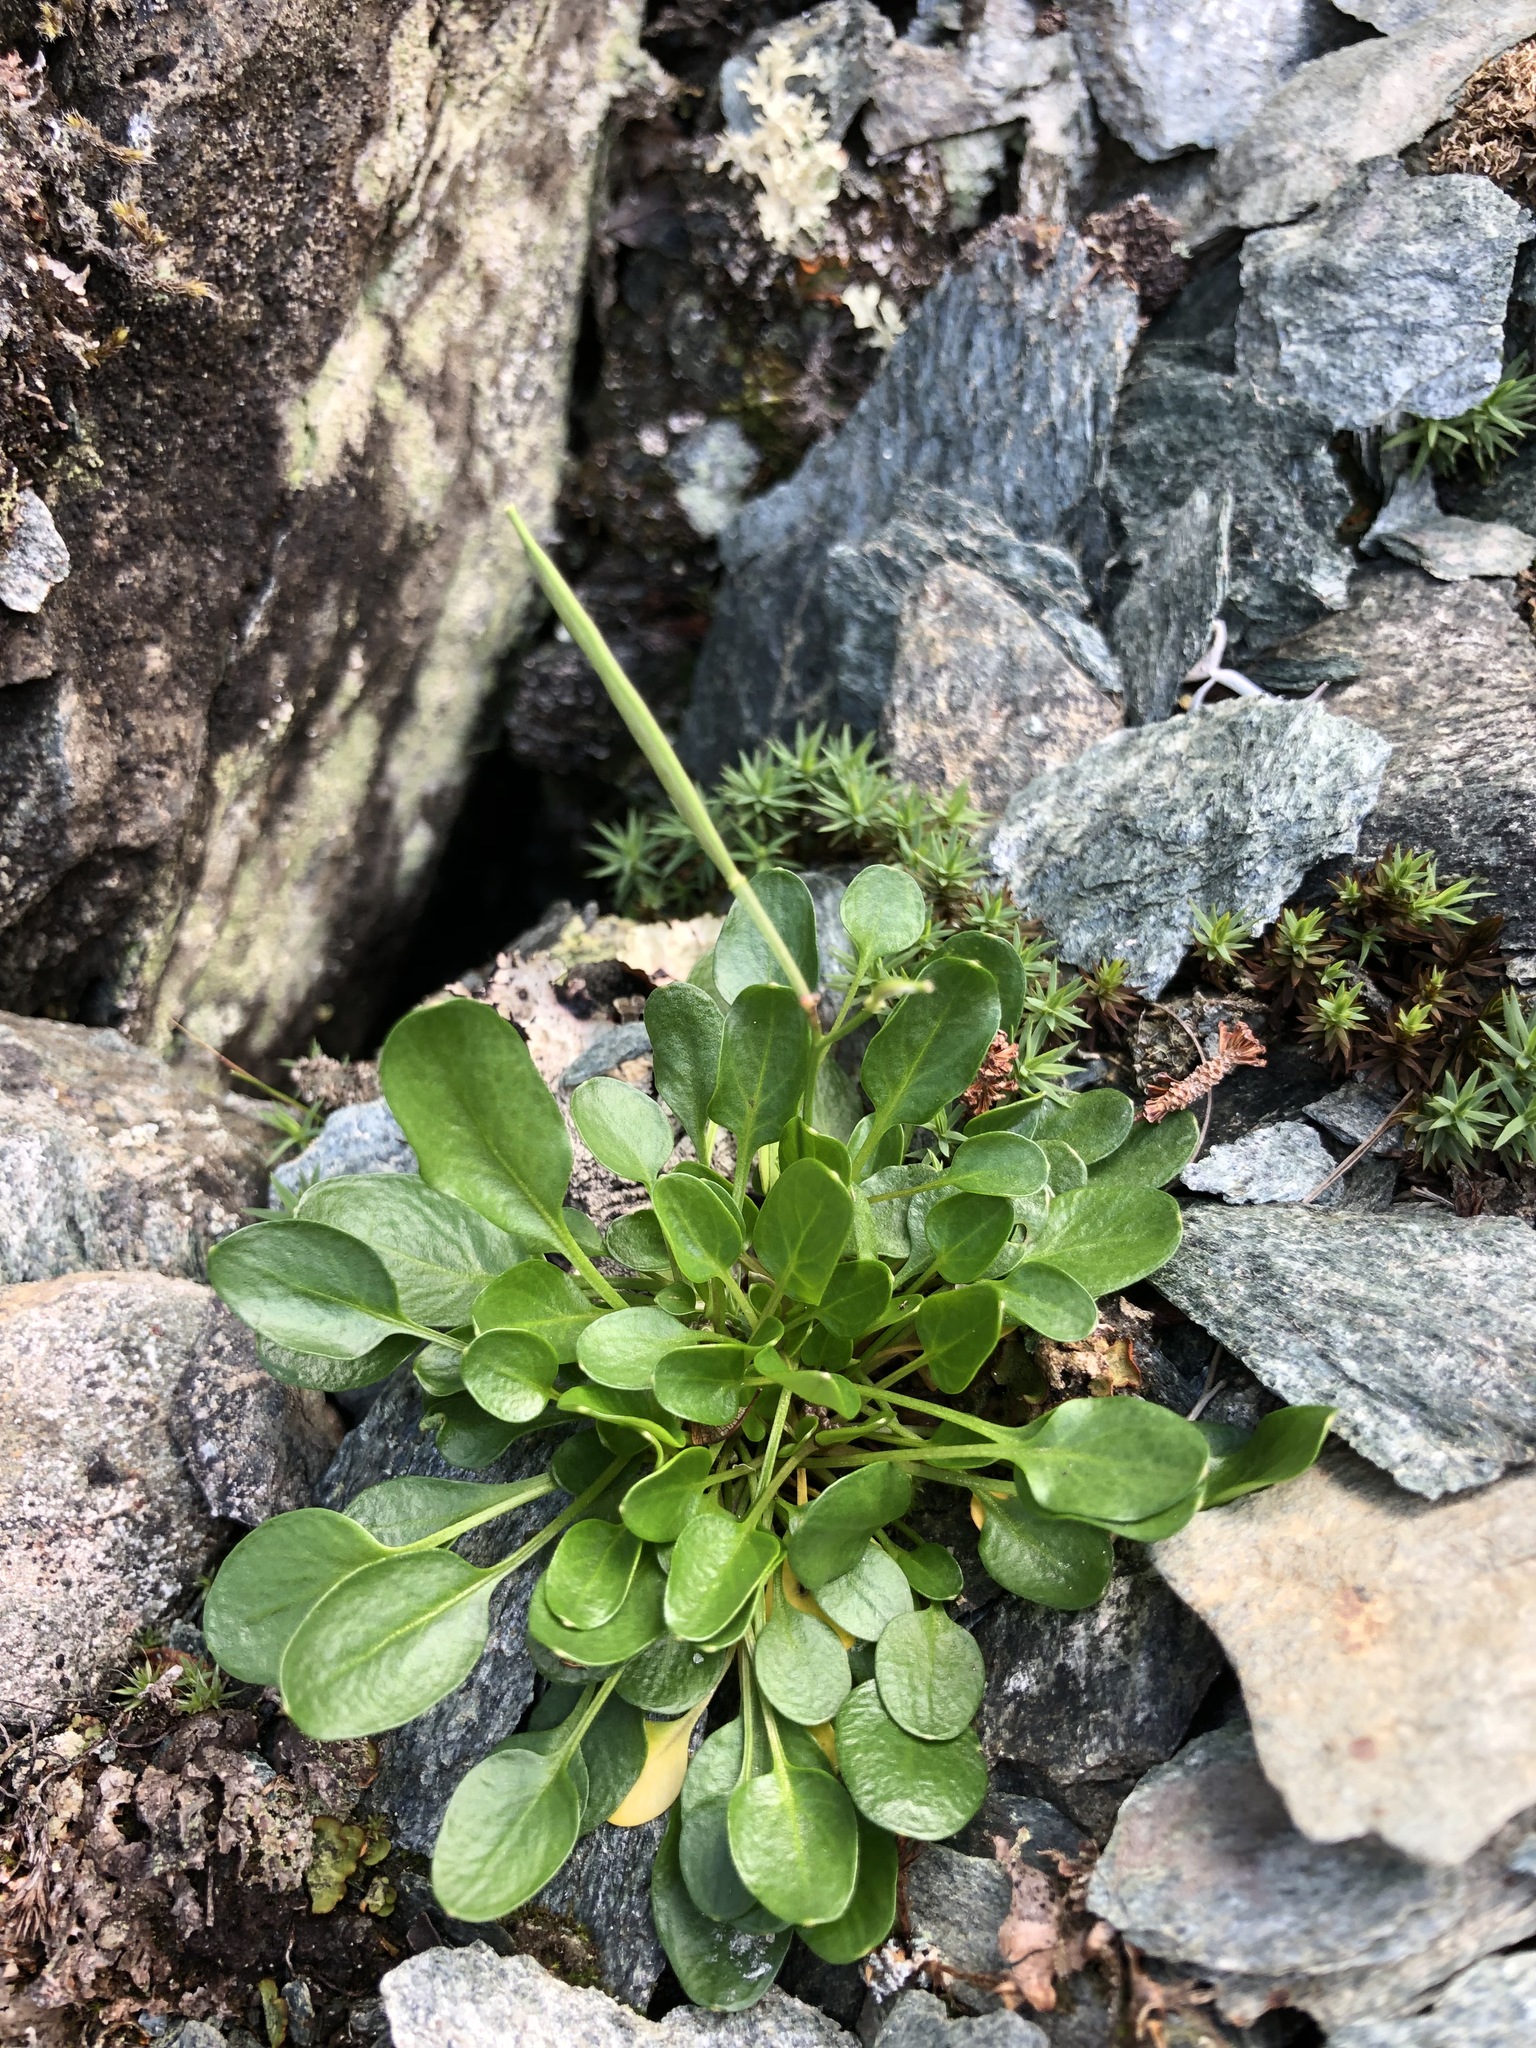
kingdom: Plantae
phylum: Tracheophyta
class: Magnoliopsida
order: Brassicales
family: Brassicaceae
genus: Cardamine
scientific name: Cardamine bellidifolia
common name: Alpine bittercress
